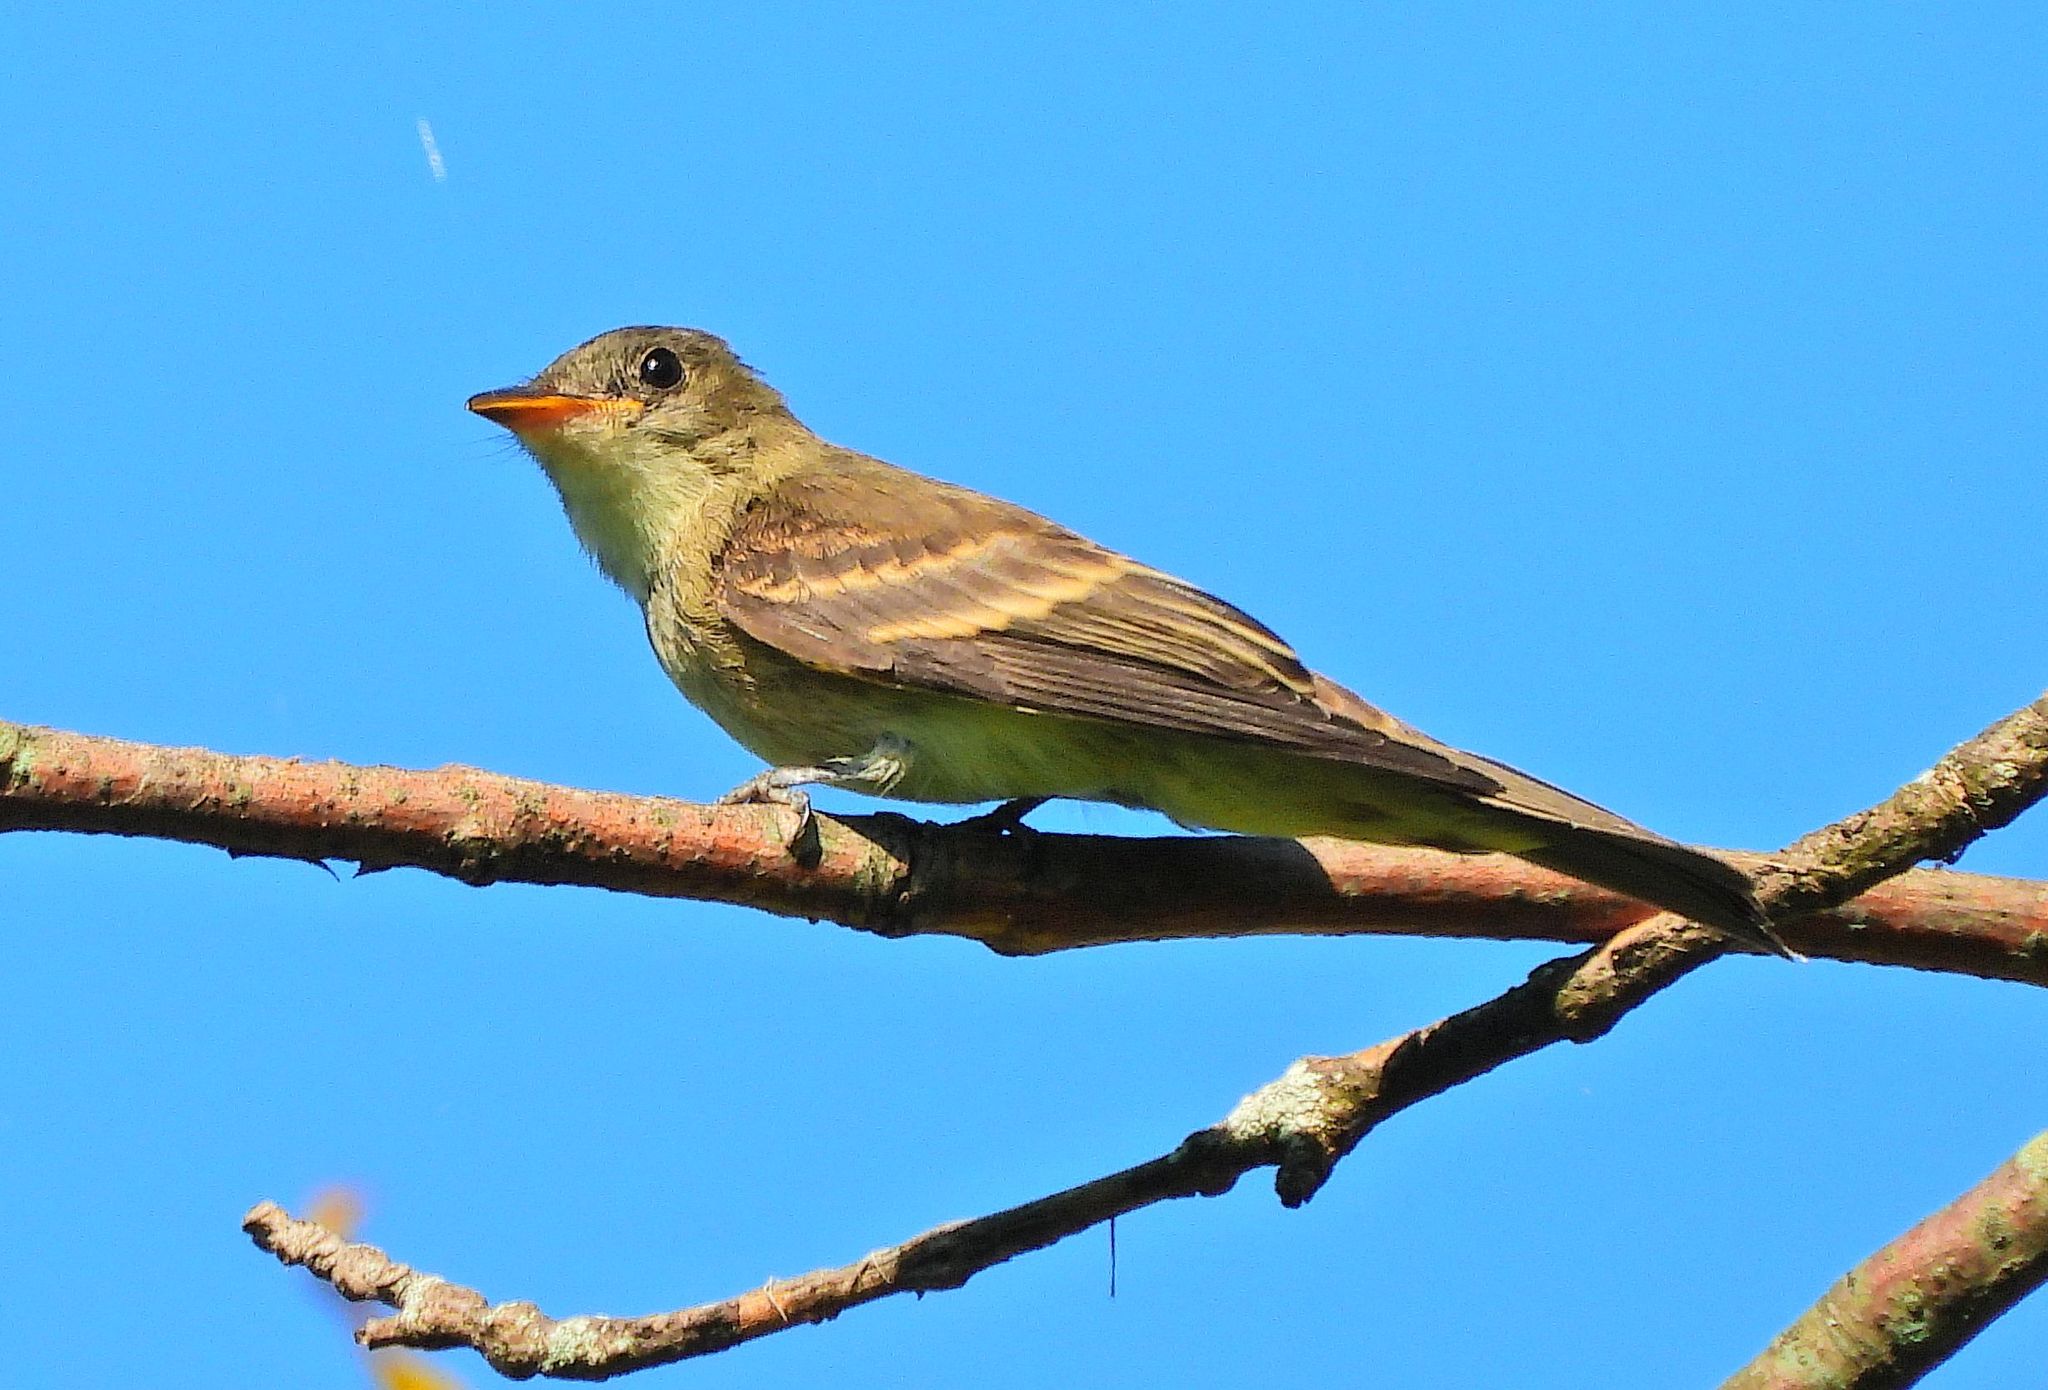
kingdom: Animalia
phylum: Chordata
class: Aves
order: Passeriformes
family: Tyrannidae
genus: Contopus
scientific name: Contopus virens
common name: Eastern wood-pewee
